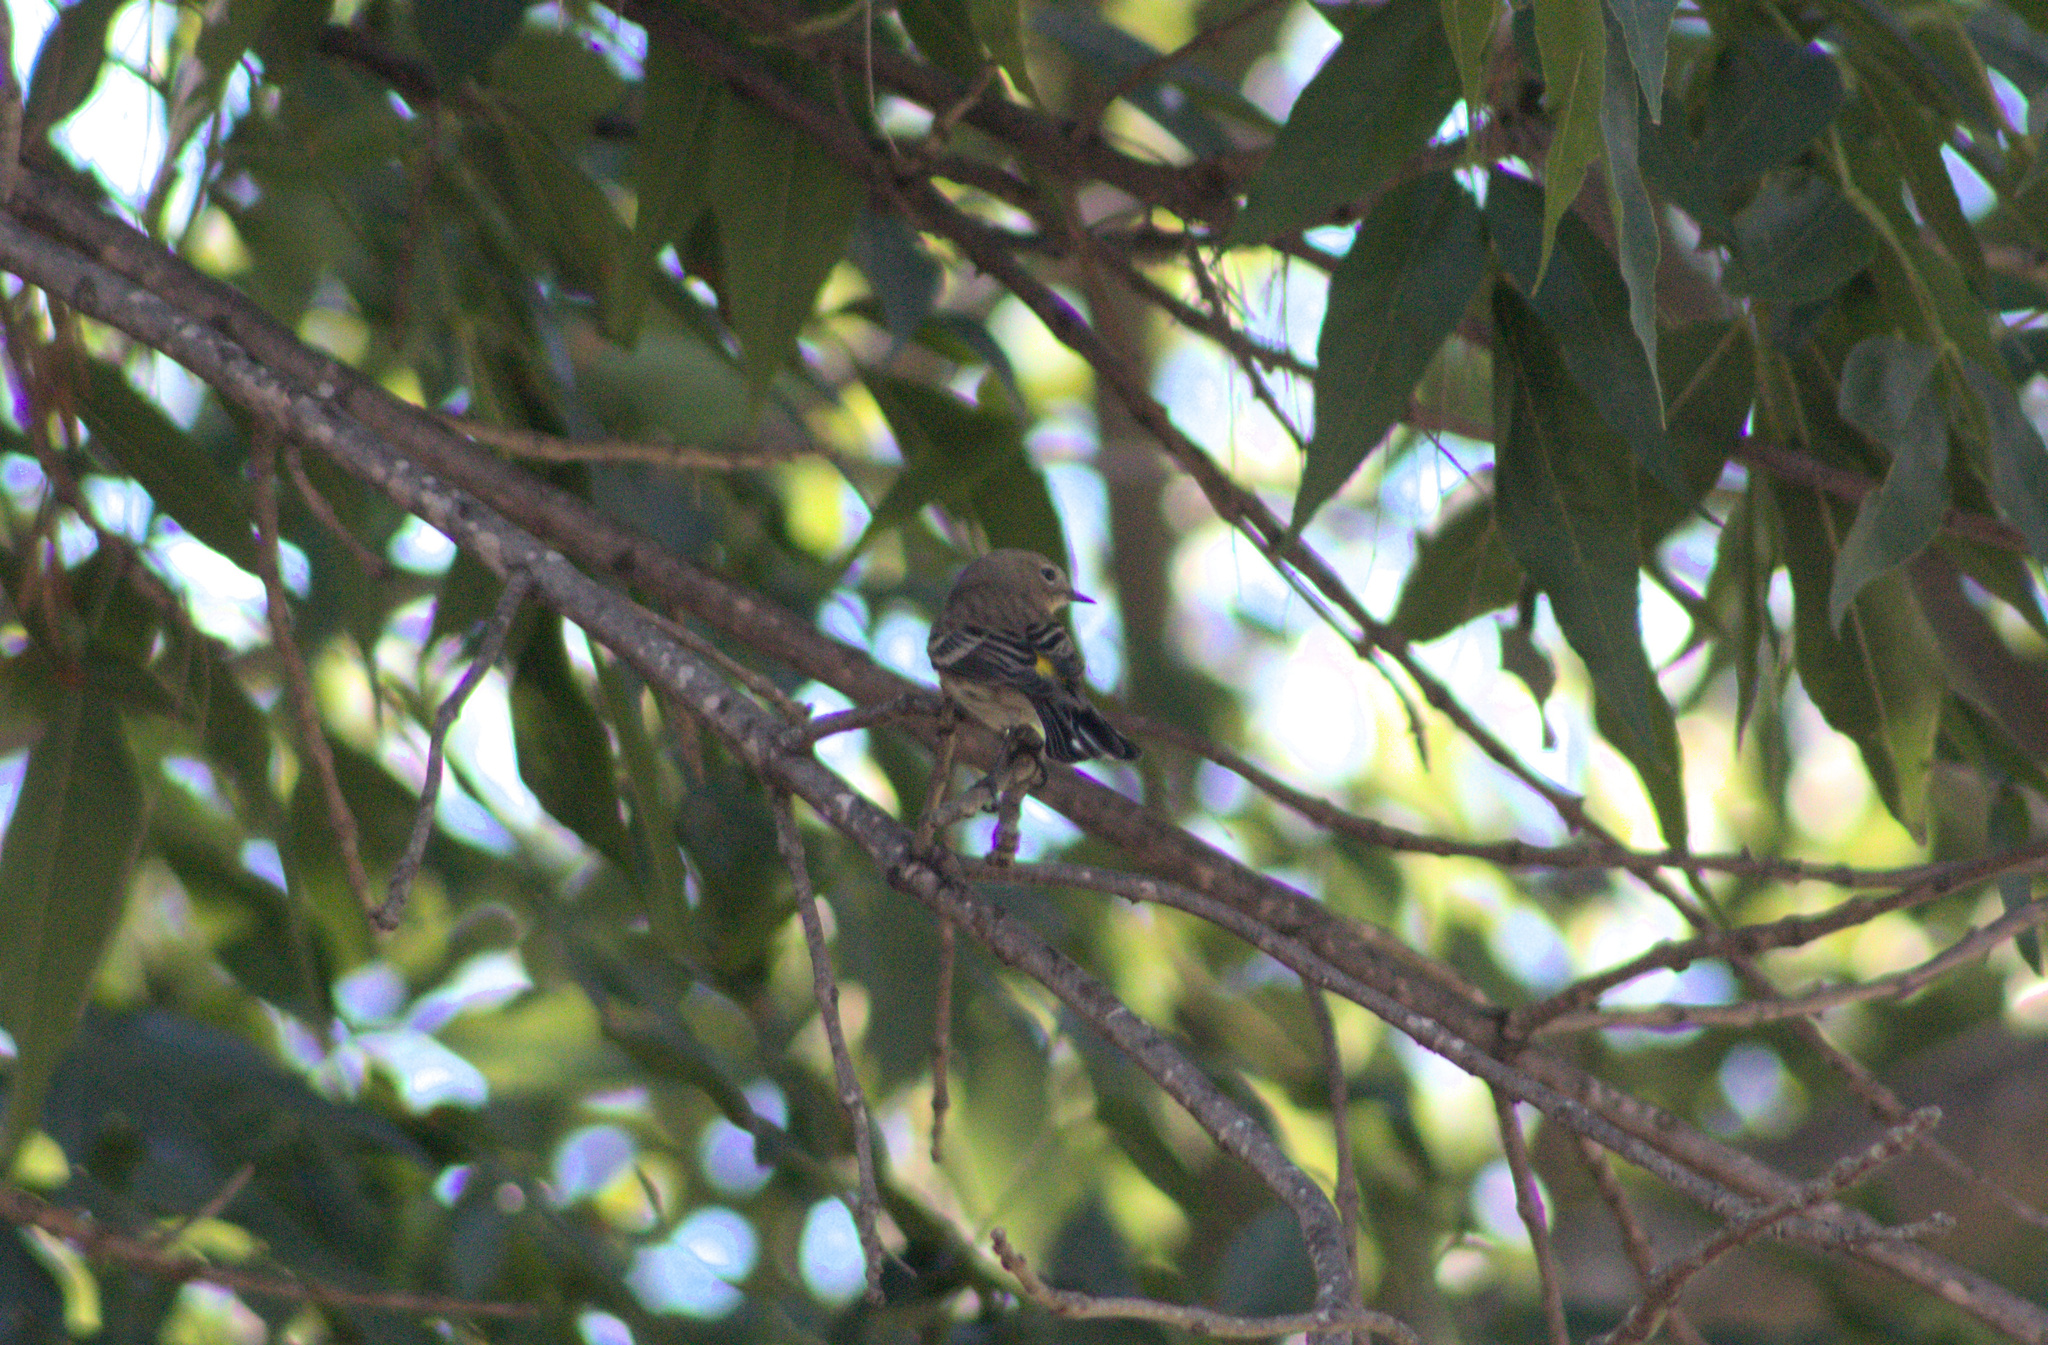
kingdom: Animalia
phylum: Chordata
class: Aves
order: Passeriformes
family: Parulidae
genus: Setophaga
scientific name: Setophaga coronata
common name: Myrtle warbler
